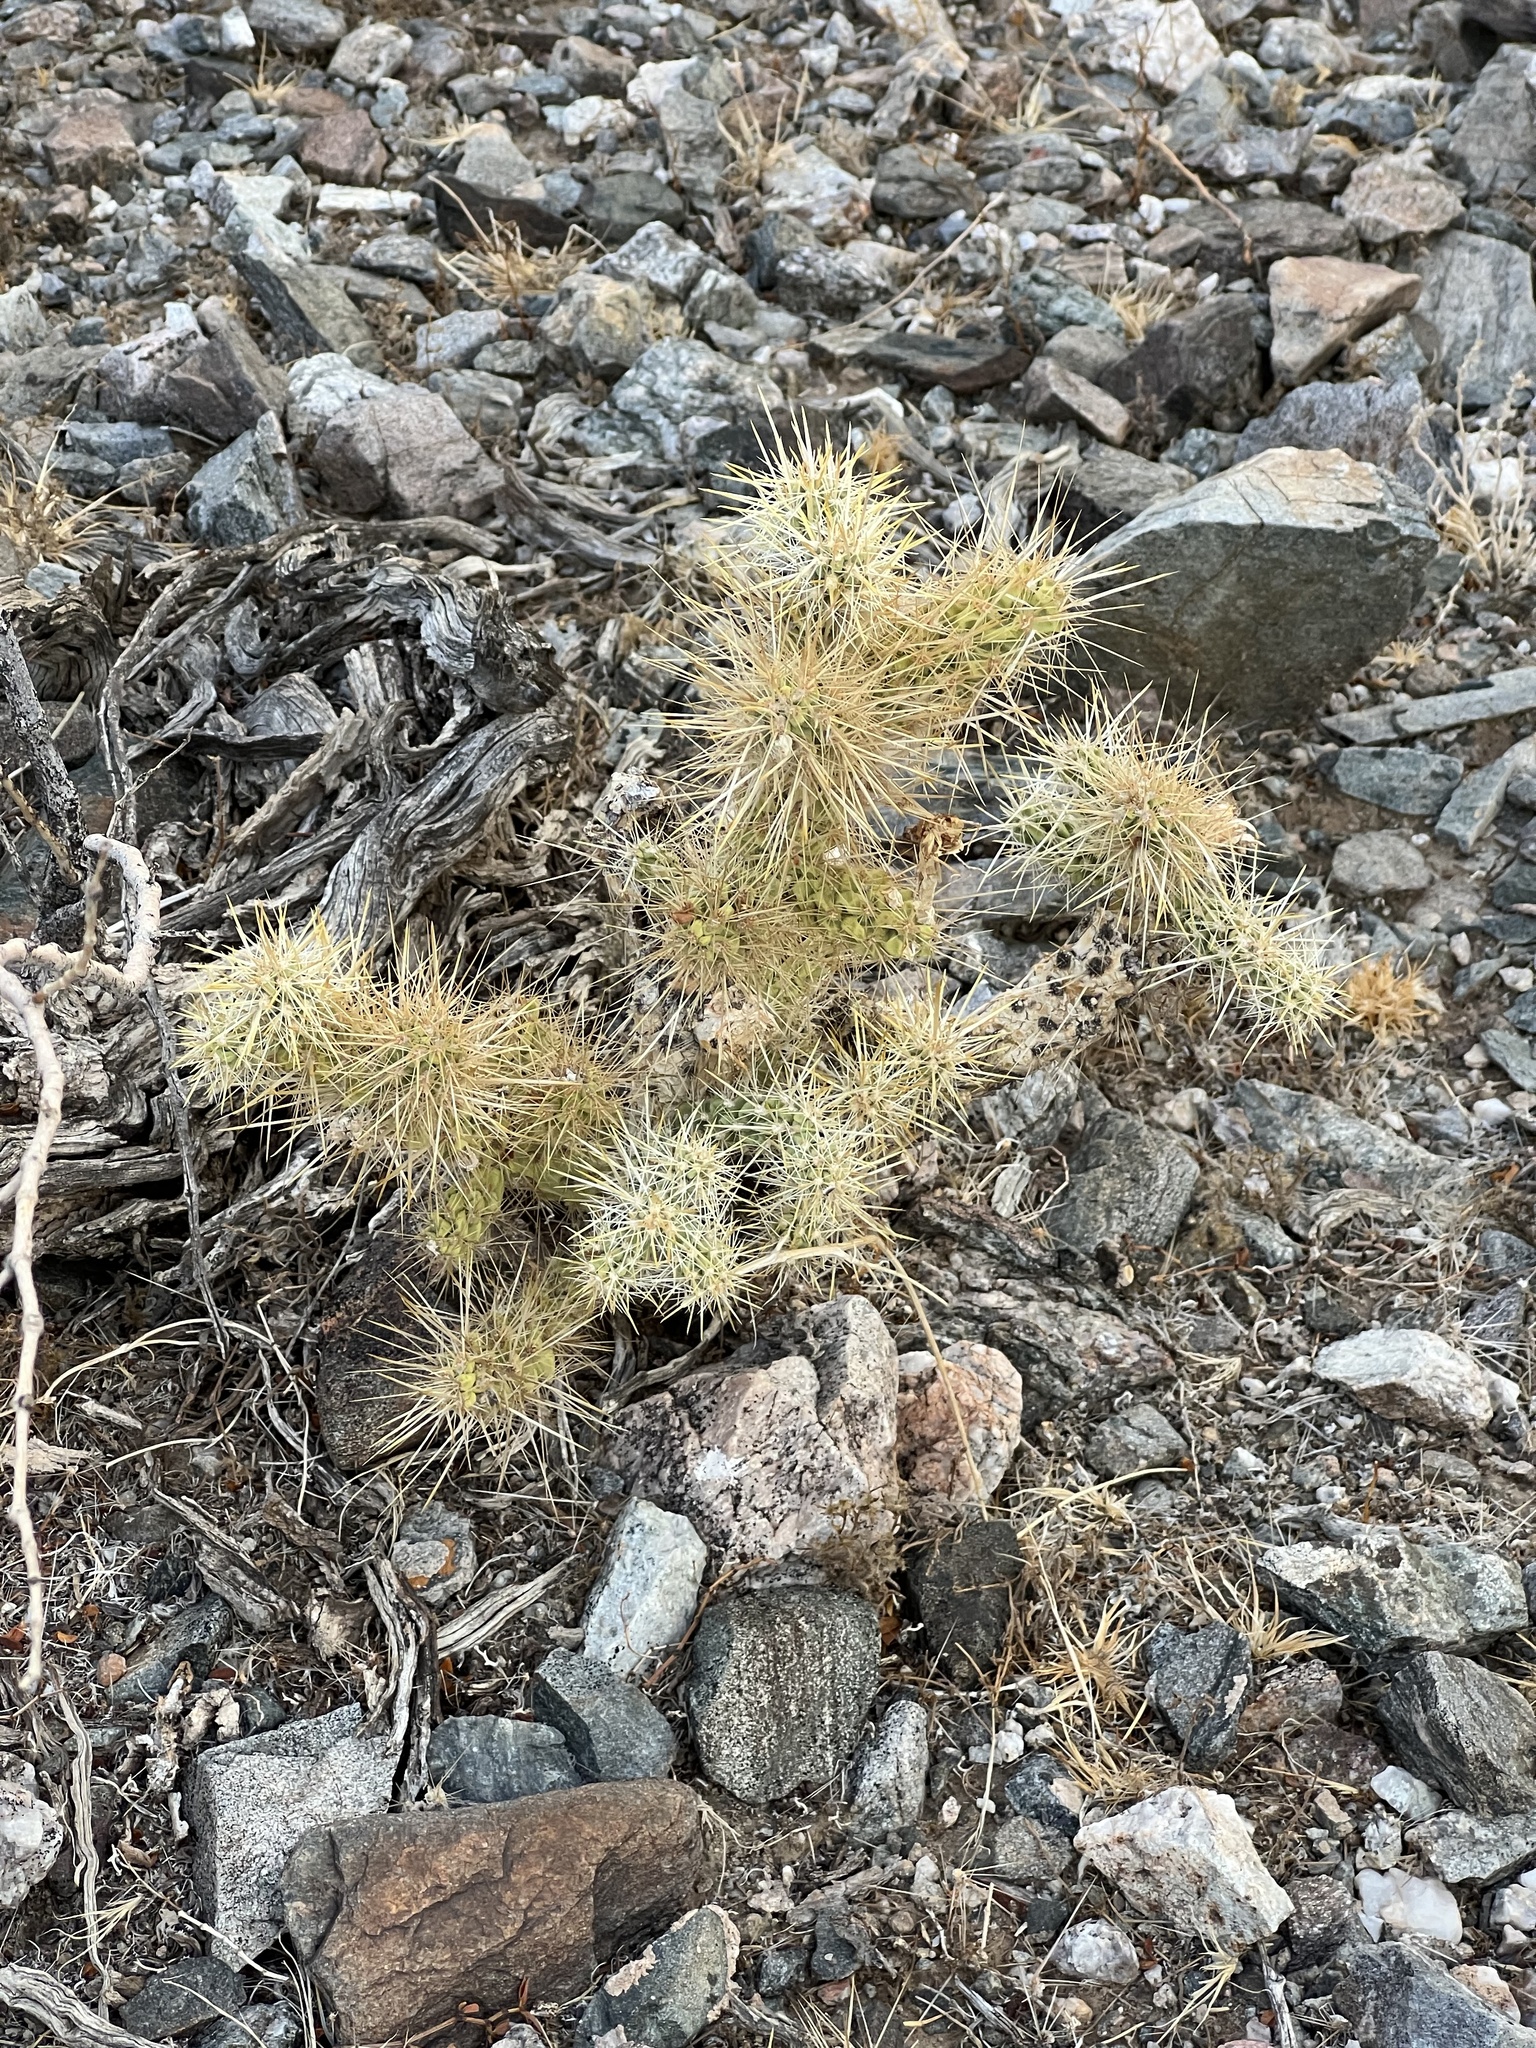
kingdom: Plantae
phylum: Tracheophyta
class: Magnoliopsida
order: Caryophyllales
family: Cactaceae
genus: Cylindropuntia
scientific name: Cylindropuntia echinocarpa
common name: Ground cholla
